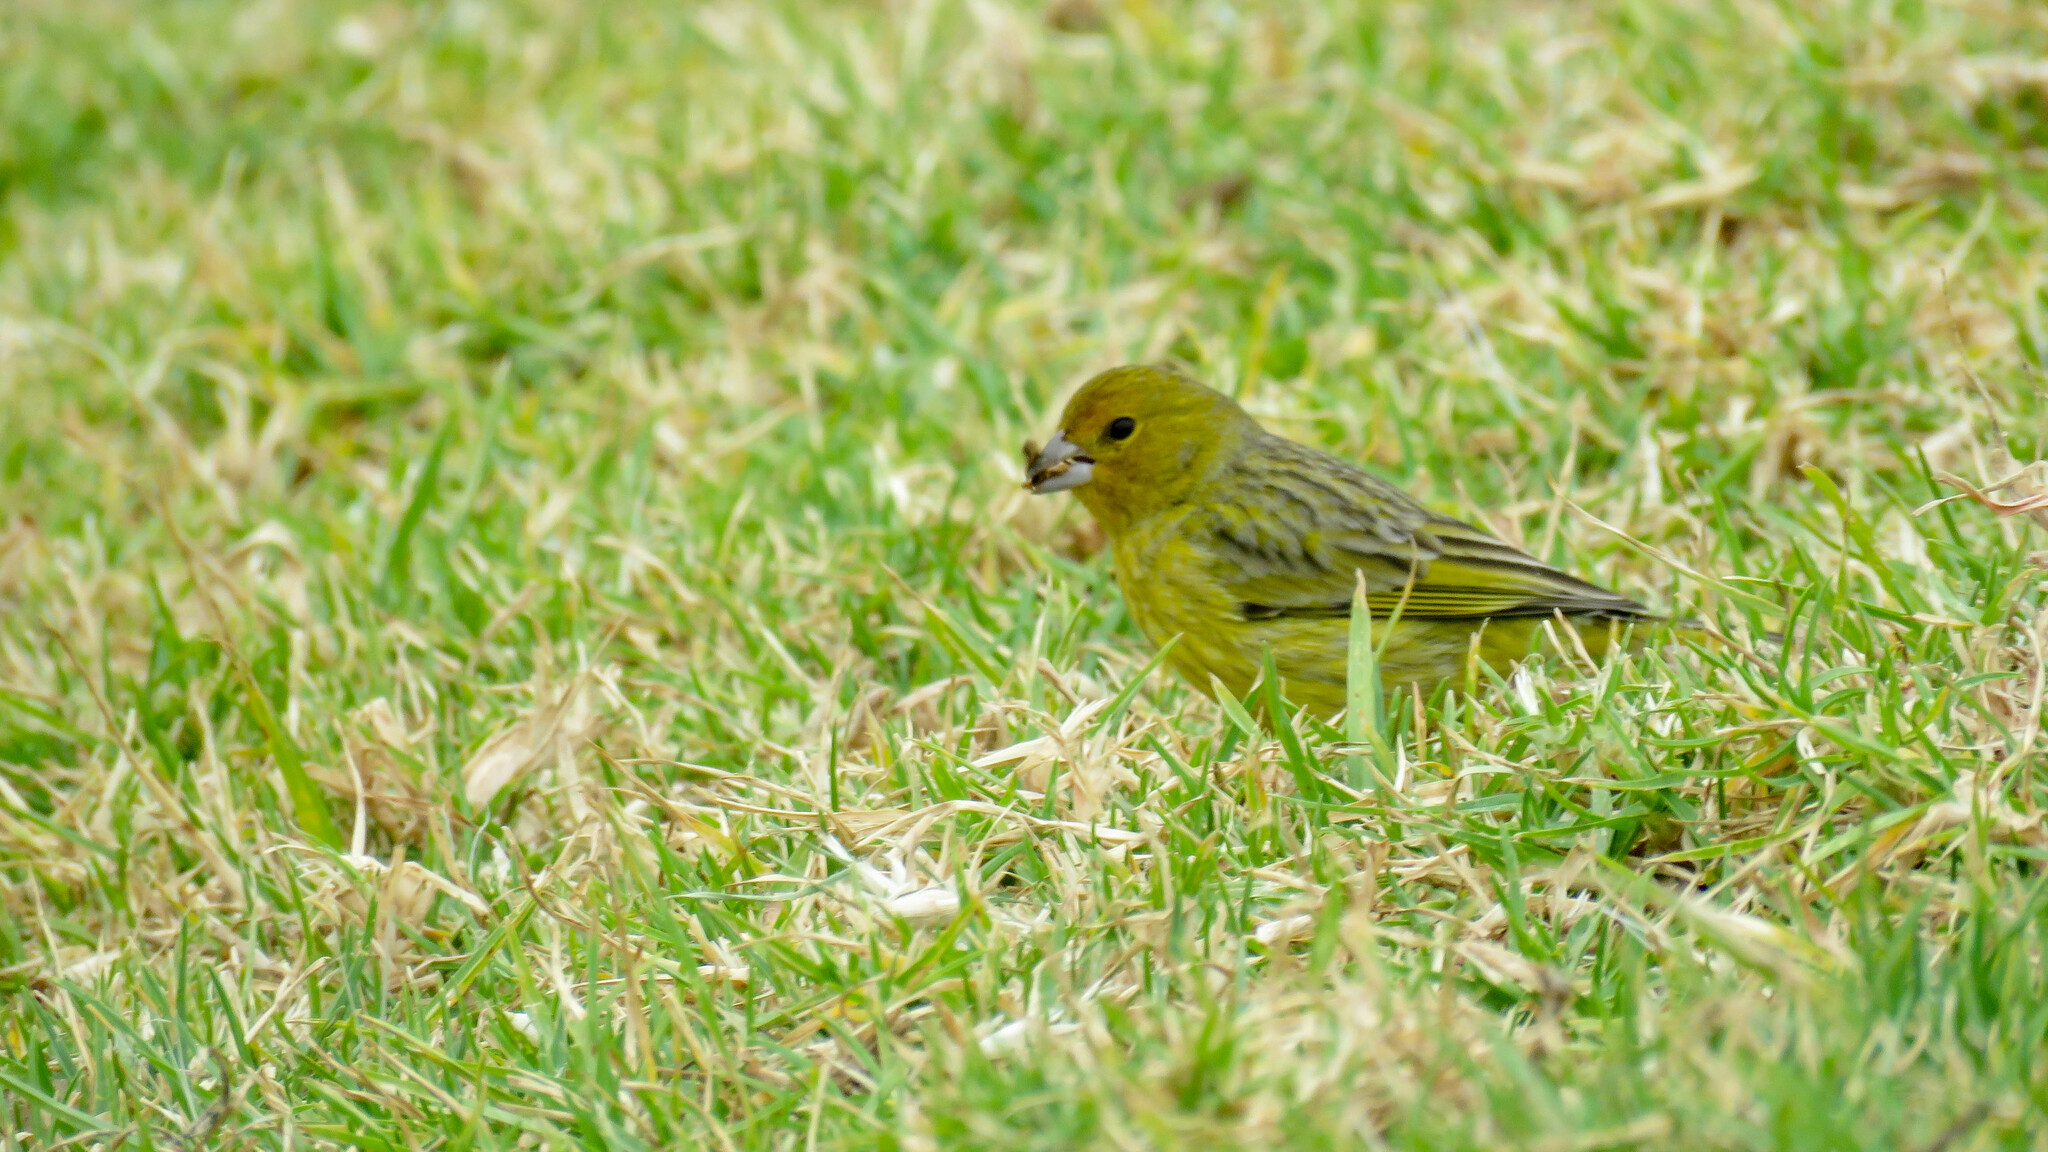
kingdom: Animalia
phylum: Chordata
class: Aves
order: Passeriformes
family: Thraupidae
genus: Sicalis
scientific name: Sicalis flaveola
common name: Saffron finch
